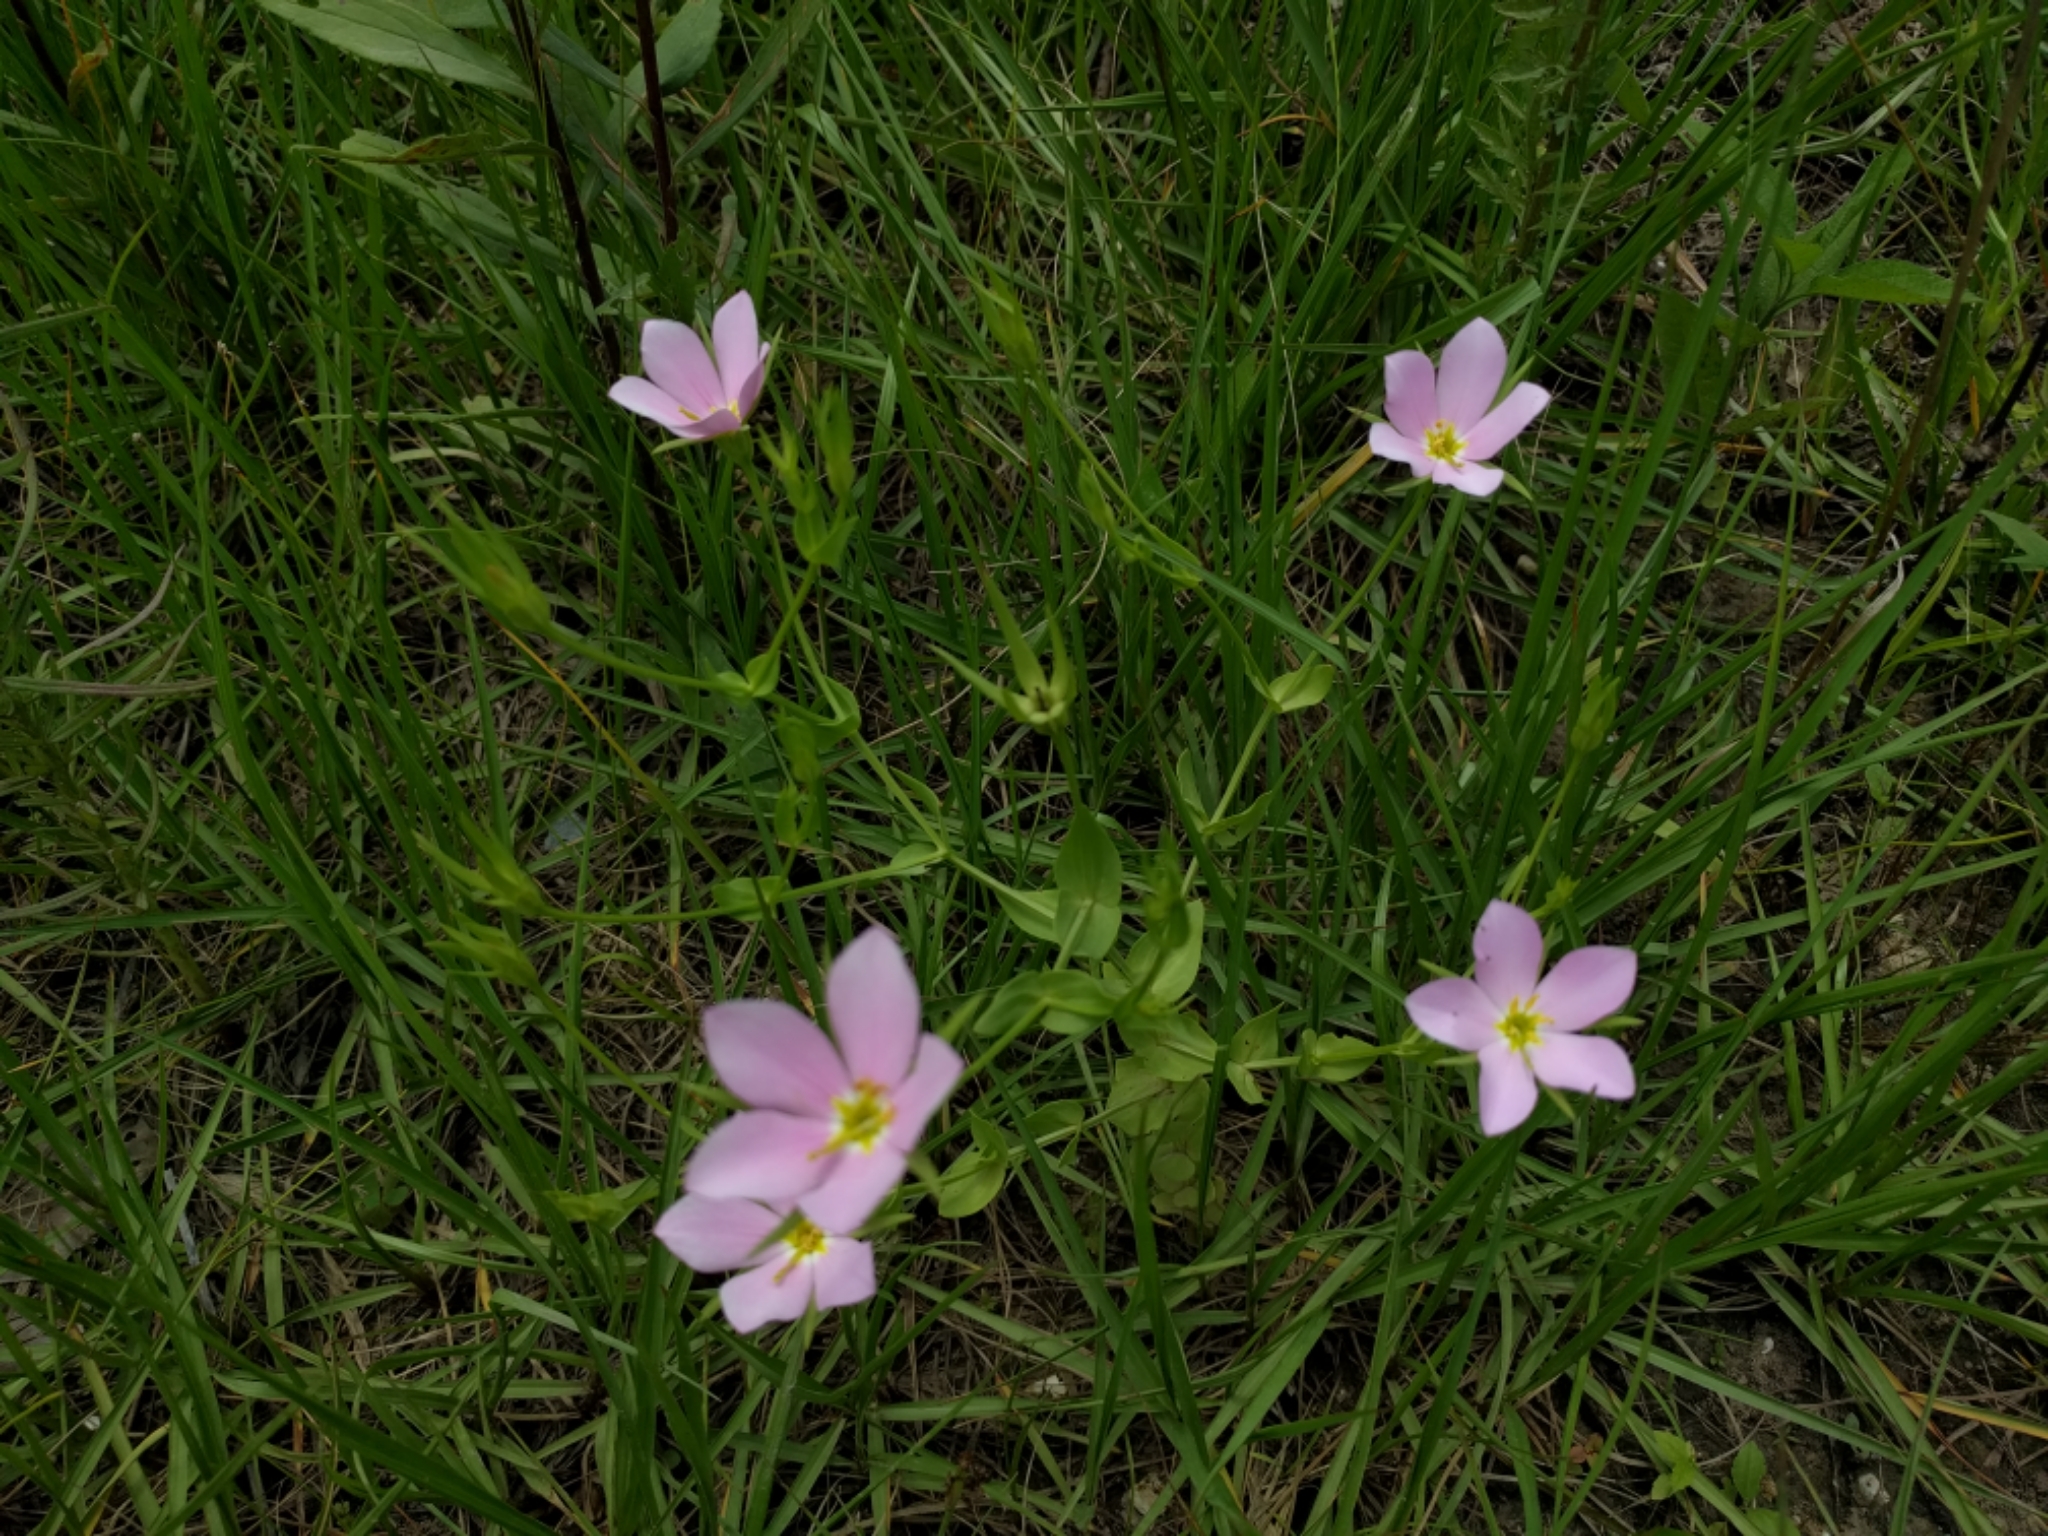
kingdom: Plantae
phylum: Tracheophyta
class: Magnoliopsida
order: Gentianales
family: Gentianaceae
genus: Sabatia
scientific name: Sabatia campestris
